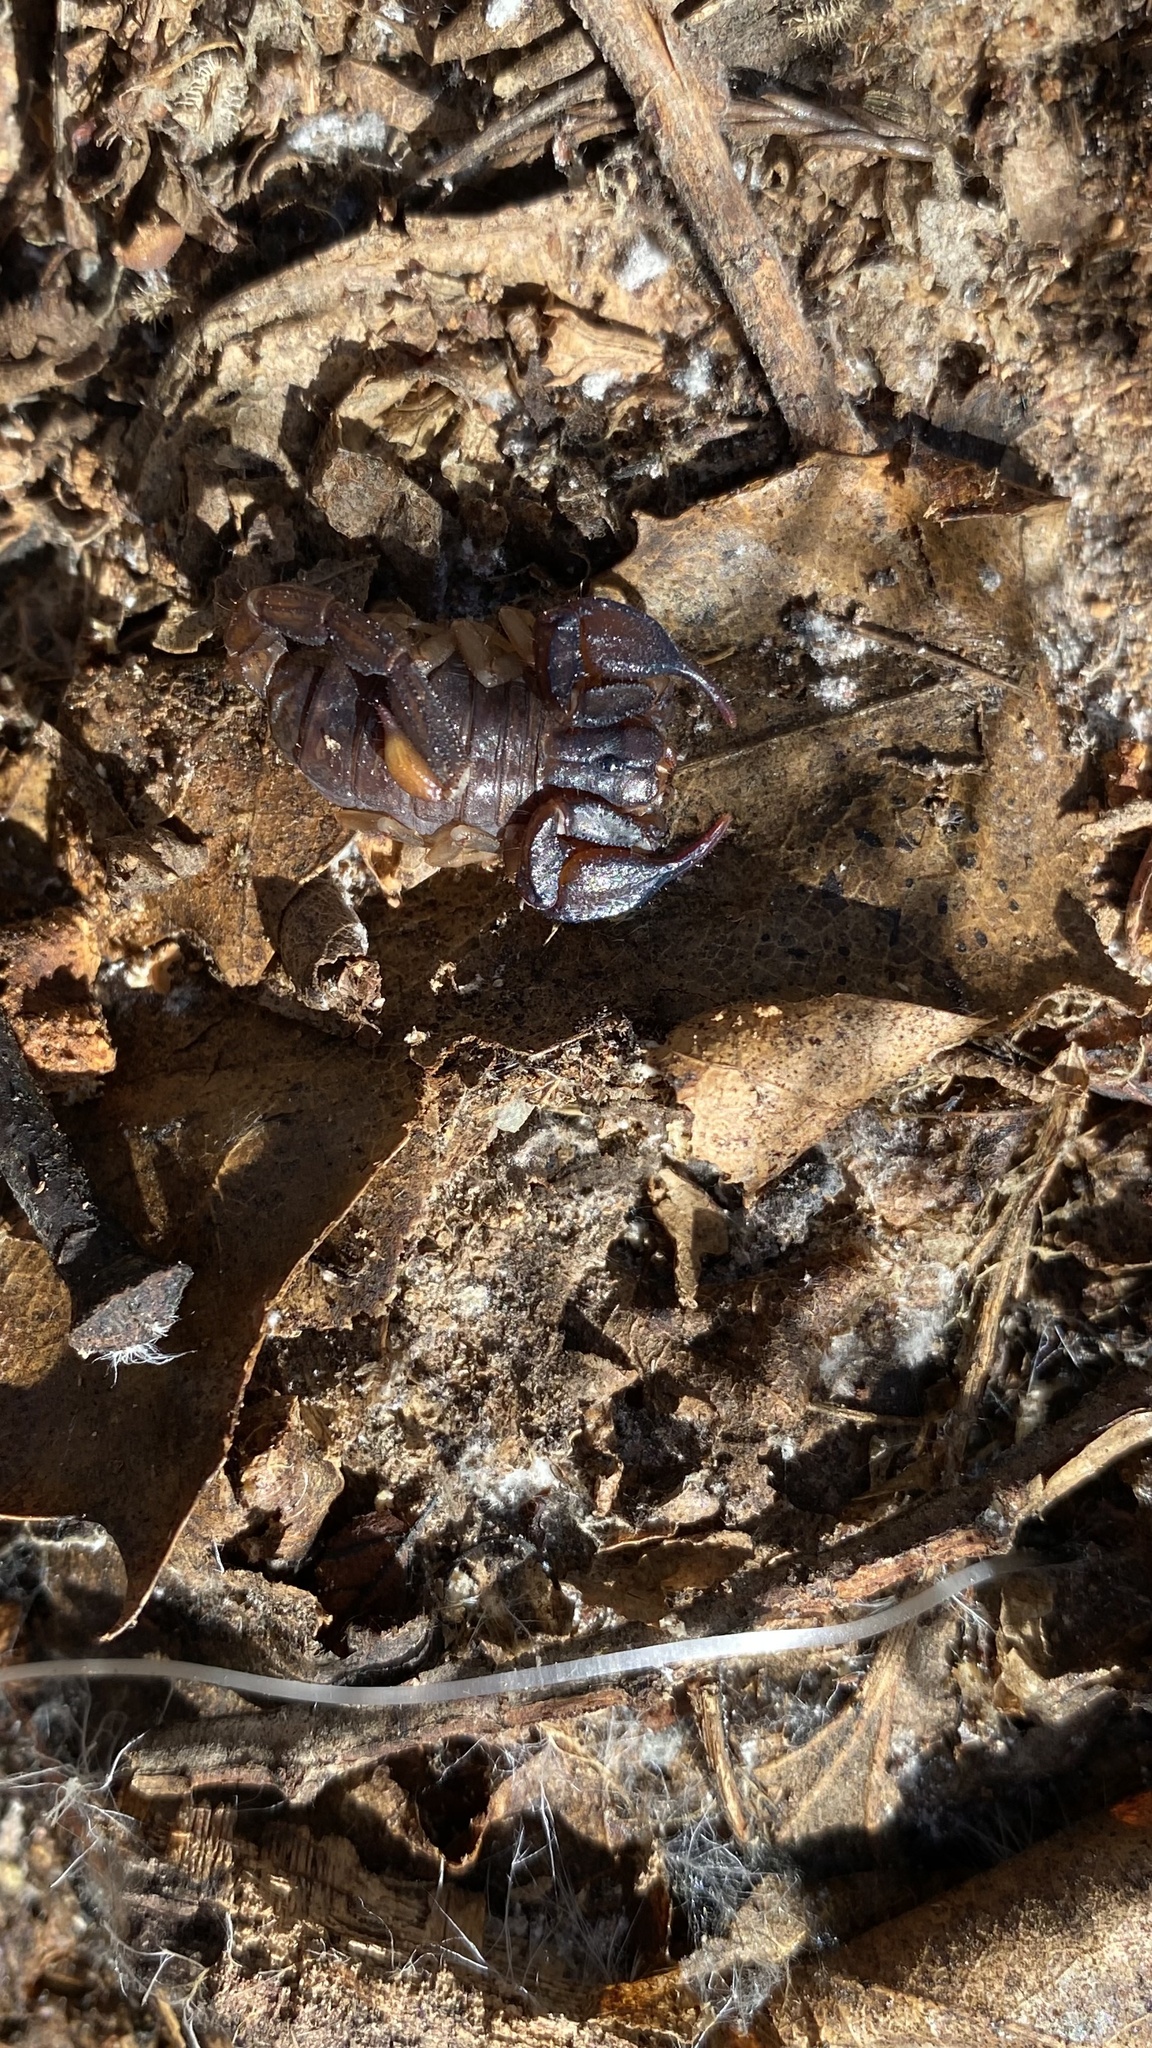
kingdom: Animalia
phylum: Arthropoda
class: Arachnida
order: Scorpiones
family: Chactidae
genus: Uroctonus
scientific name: Uroctonus mordax
